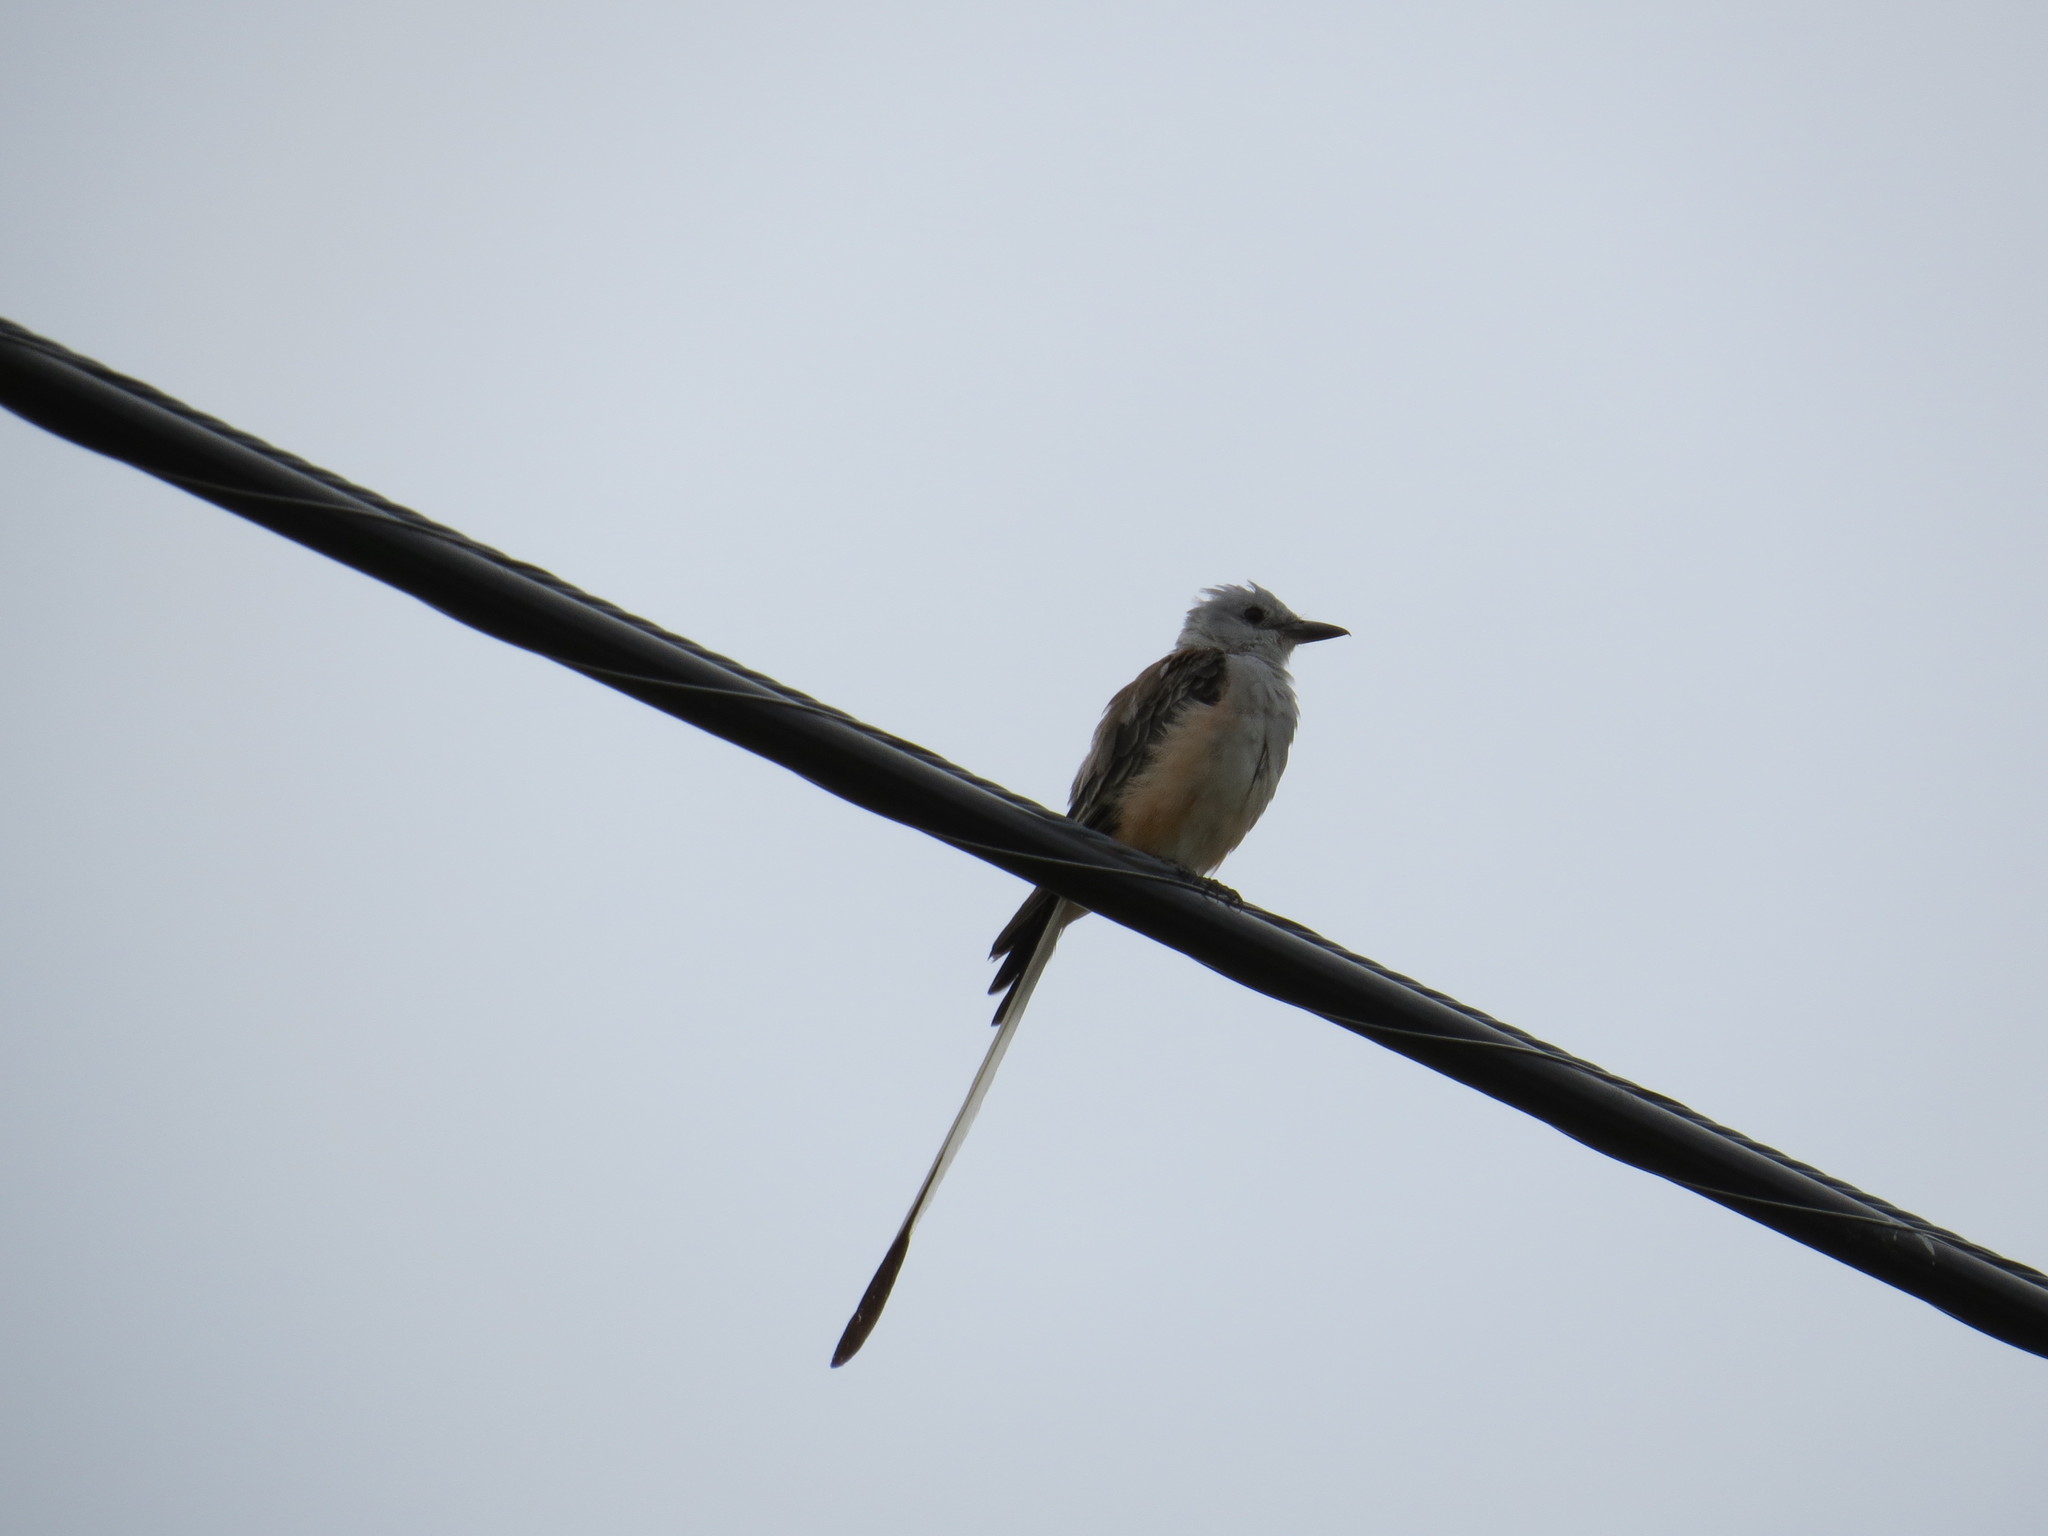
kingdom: Animalia
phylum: Chordata
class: Aves
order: Passeriformes
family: Tyrannidae
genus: Tyrannus
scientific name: Tyrannus forficatus
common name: Scissor-tailed flycatcher
